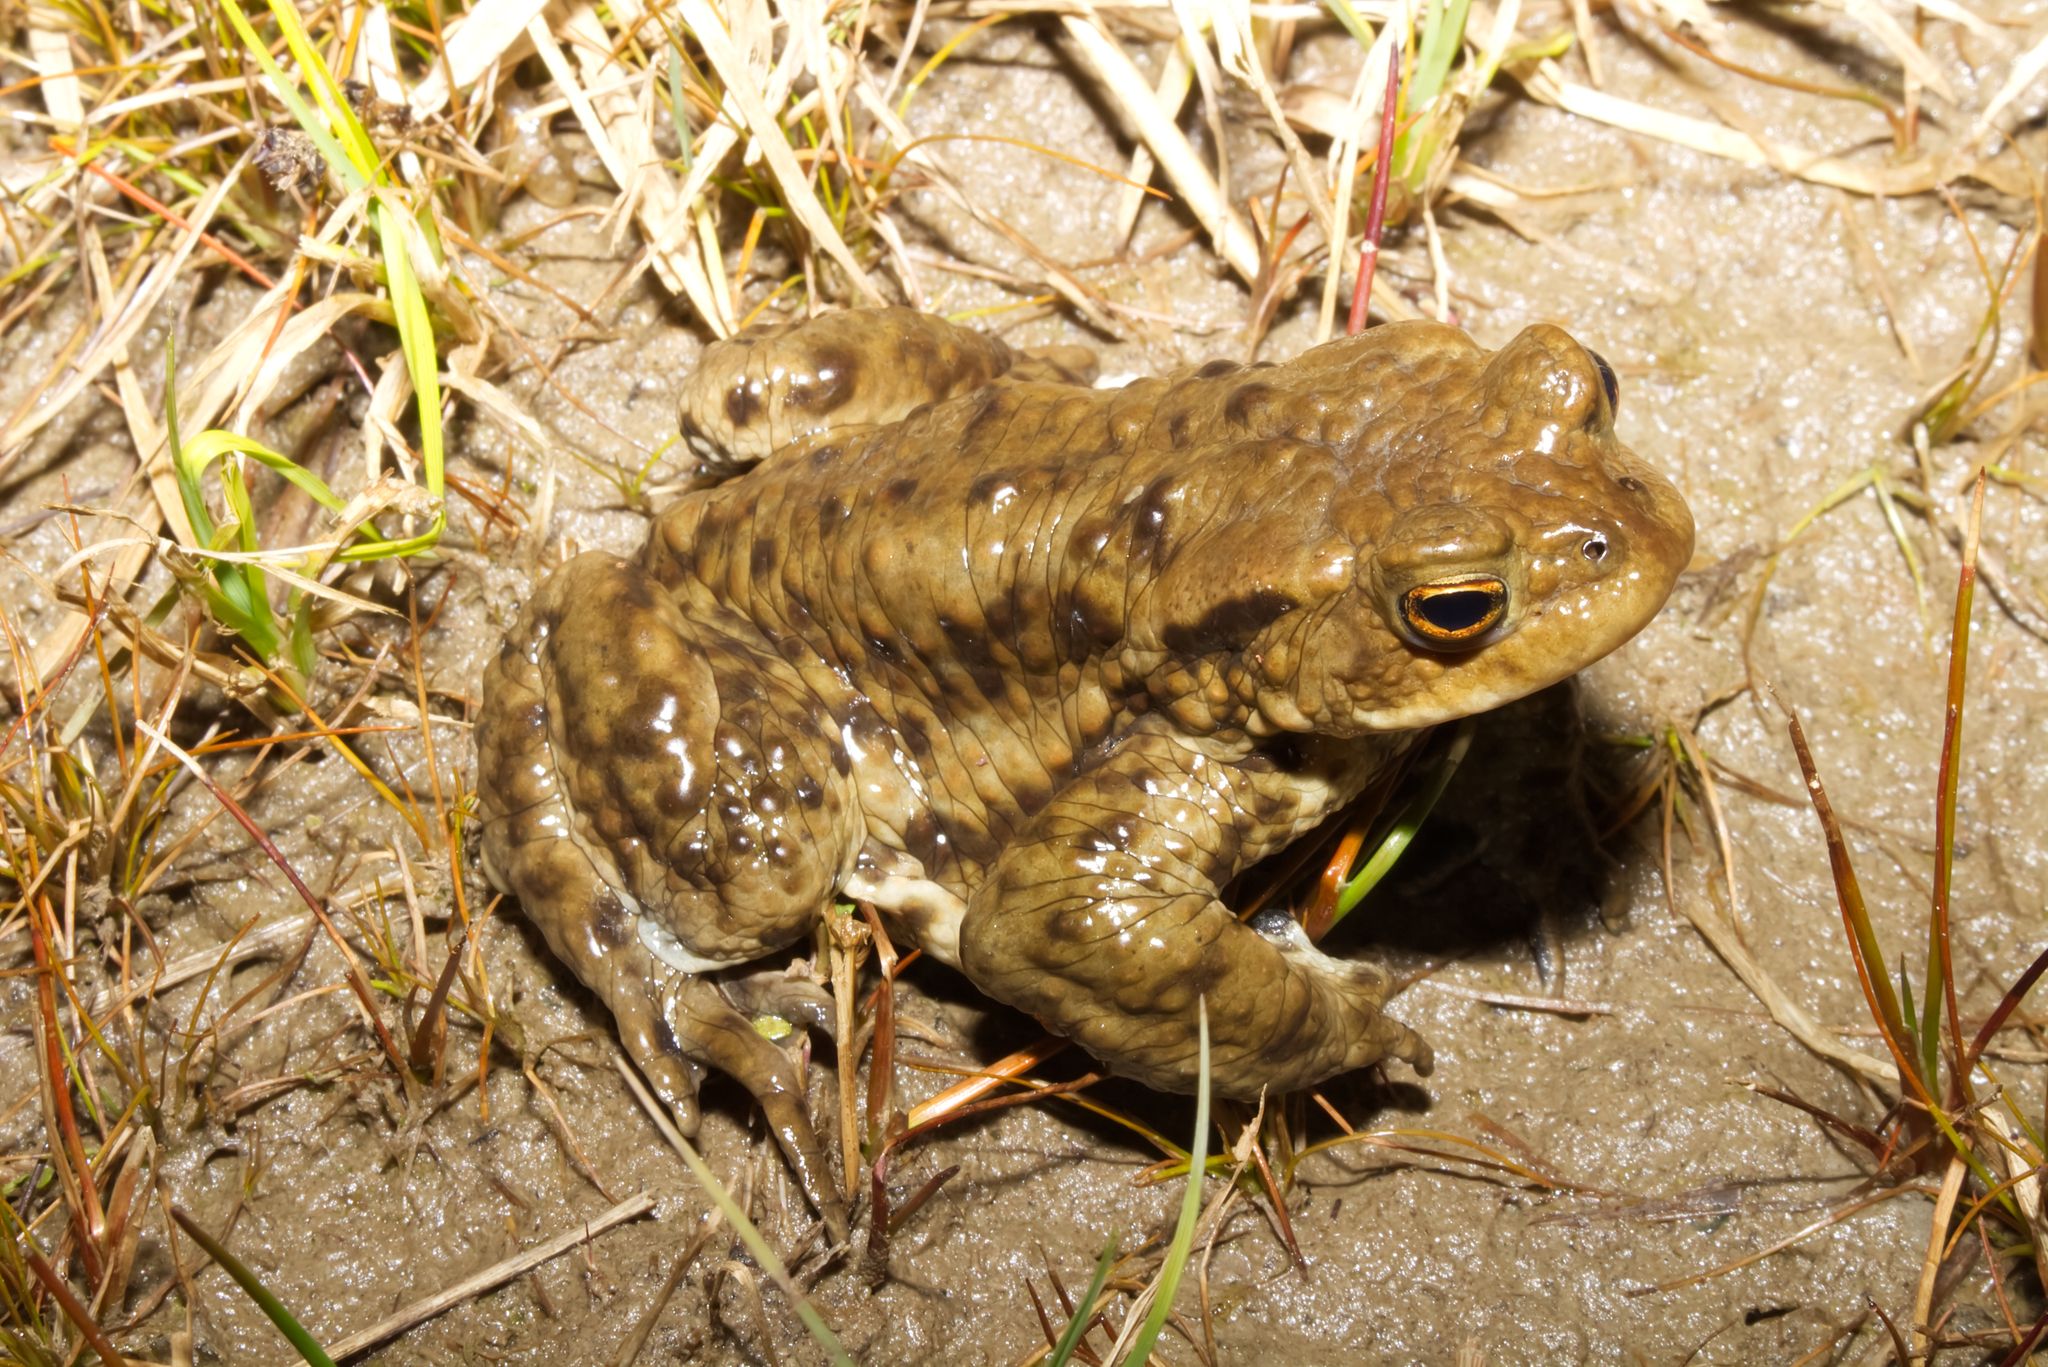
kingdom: Animalia
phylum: Chordata
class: Amphibia
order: Anura
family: Bufonidae
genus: Bufo
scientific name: Bufo bufo
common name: Common toad
